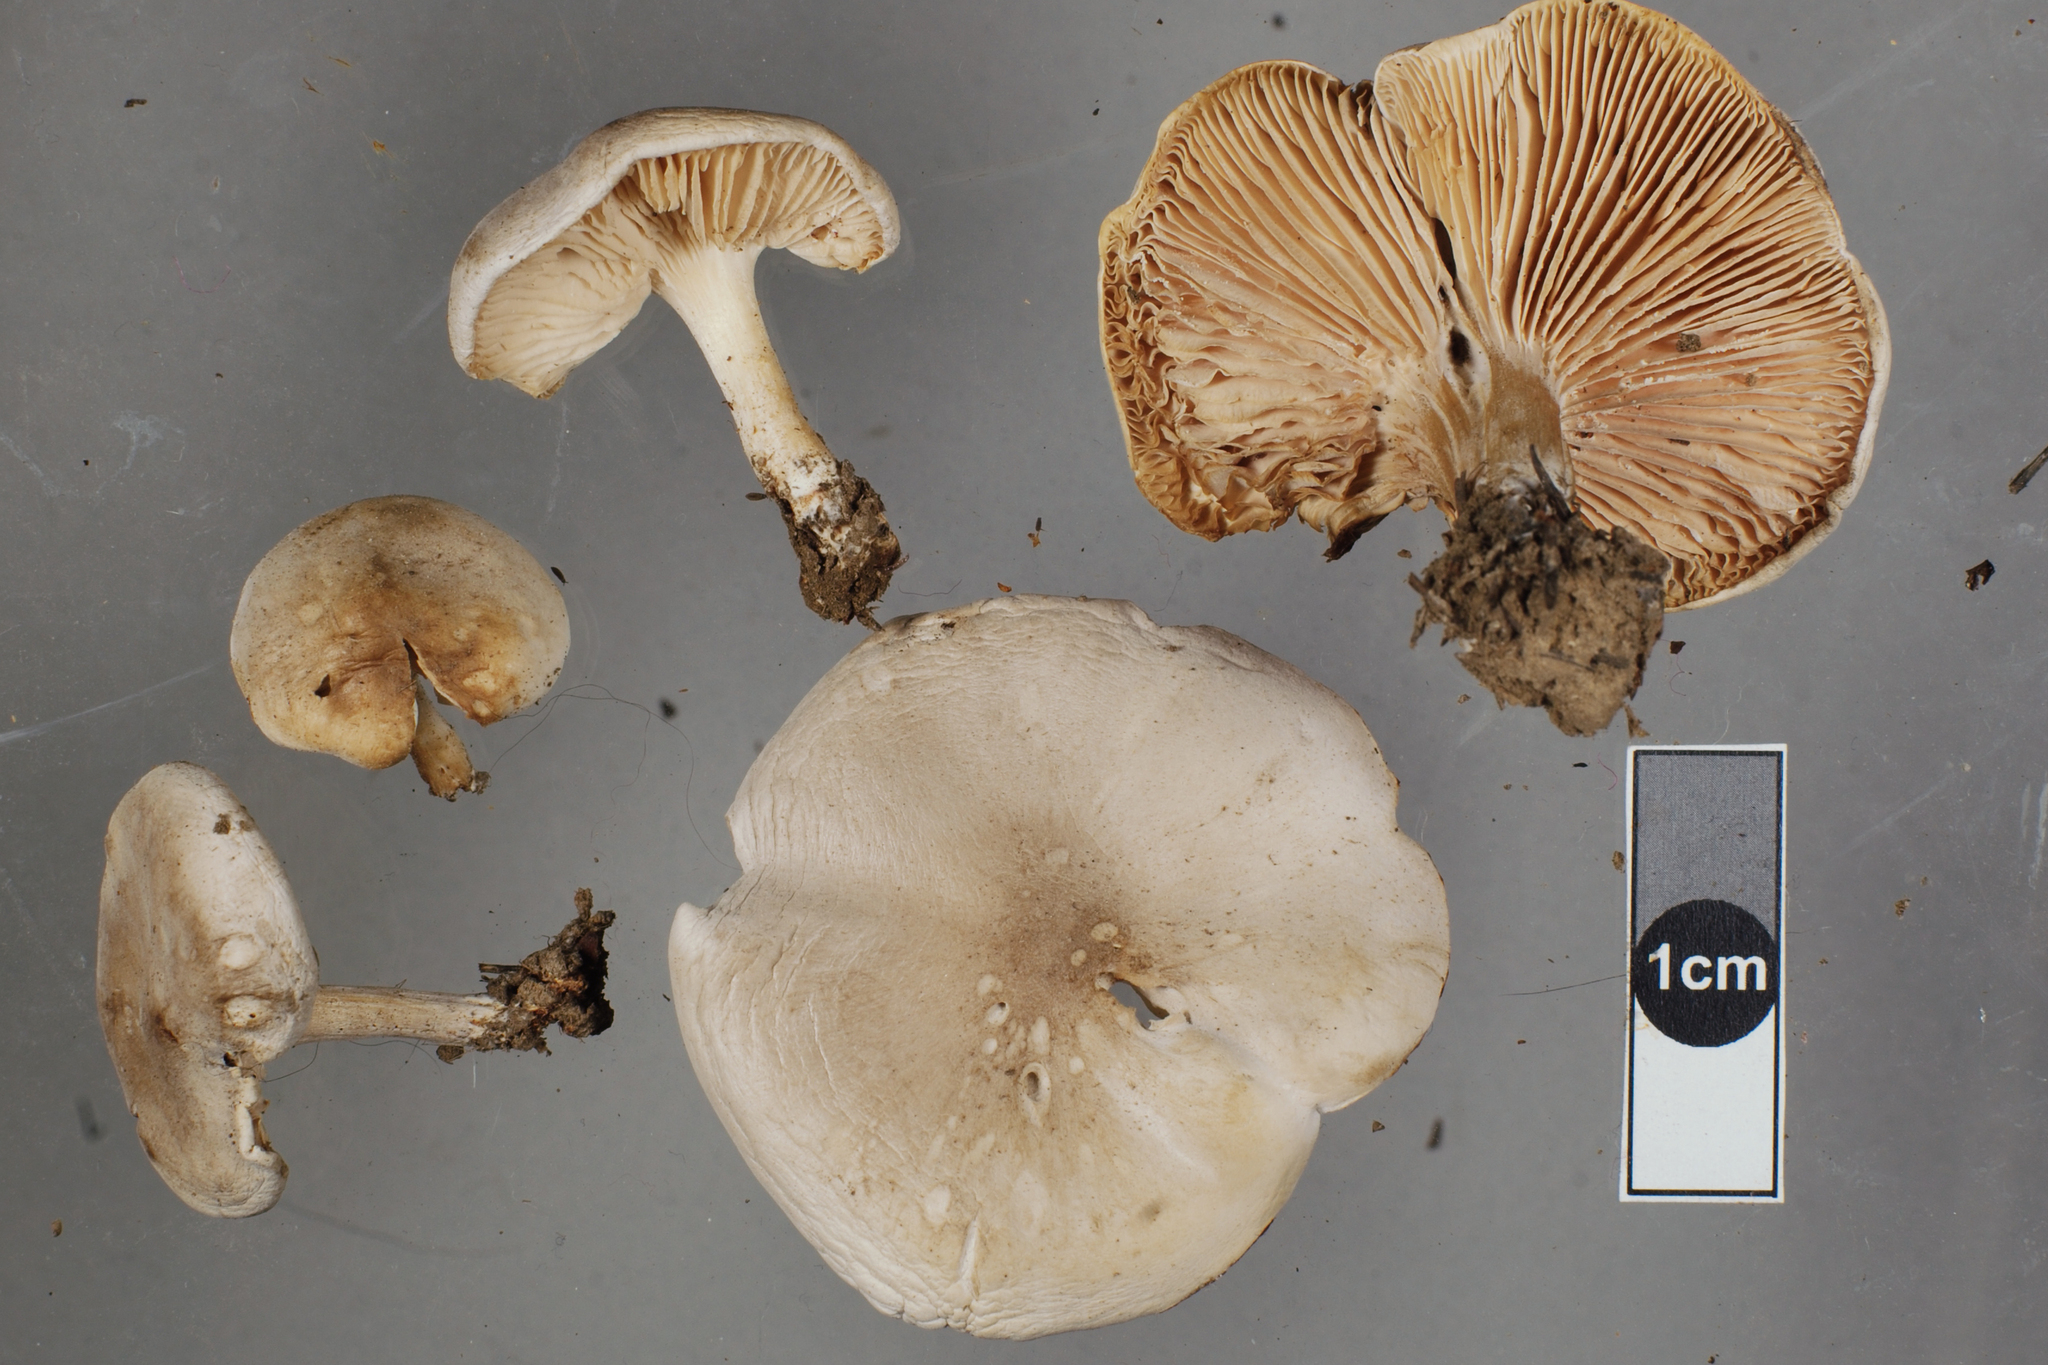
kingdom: Fungi
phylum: Basidiomycota
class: Agaricomycetes
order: Agaricales
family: Tricholomataceae
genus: Melanoleuca
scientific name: Melanoleuca exscissa
